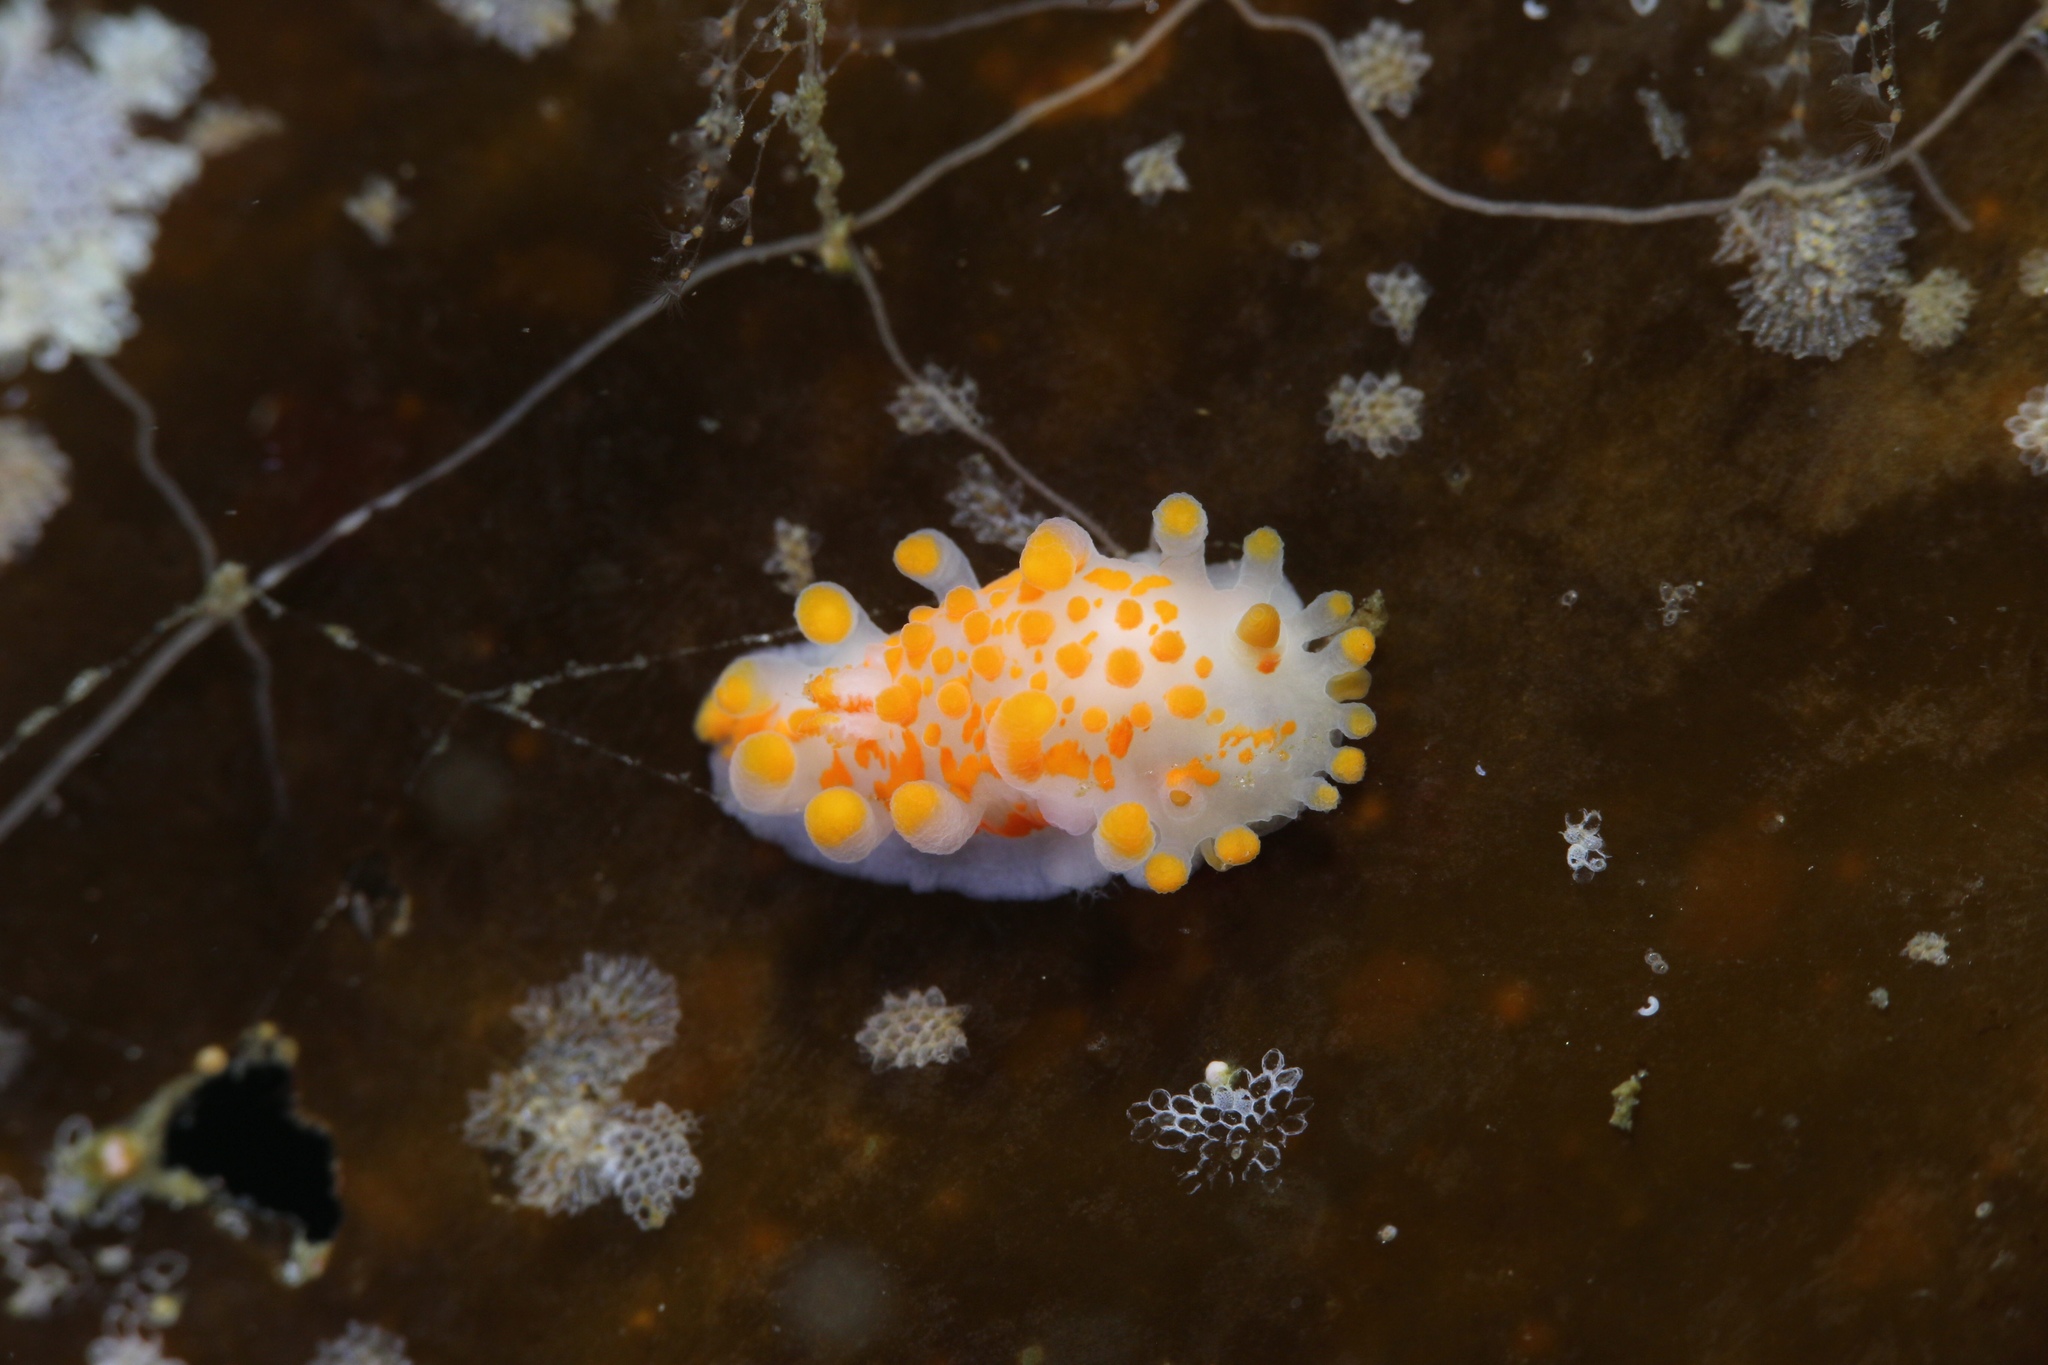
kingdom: Animalia
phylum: Mollusca
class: Gastropoda
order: Nudibranchia
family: Polyceridae
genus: Limacia
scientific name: Limacia clavigera
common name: Orange-clubbed sea slug
